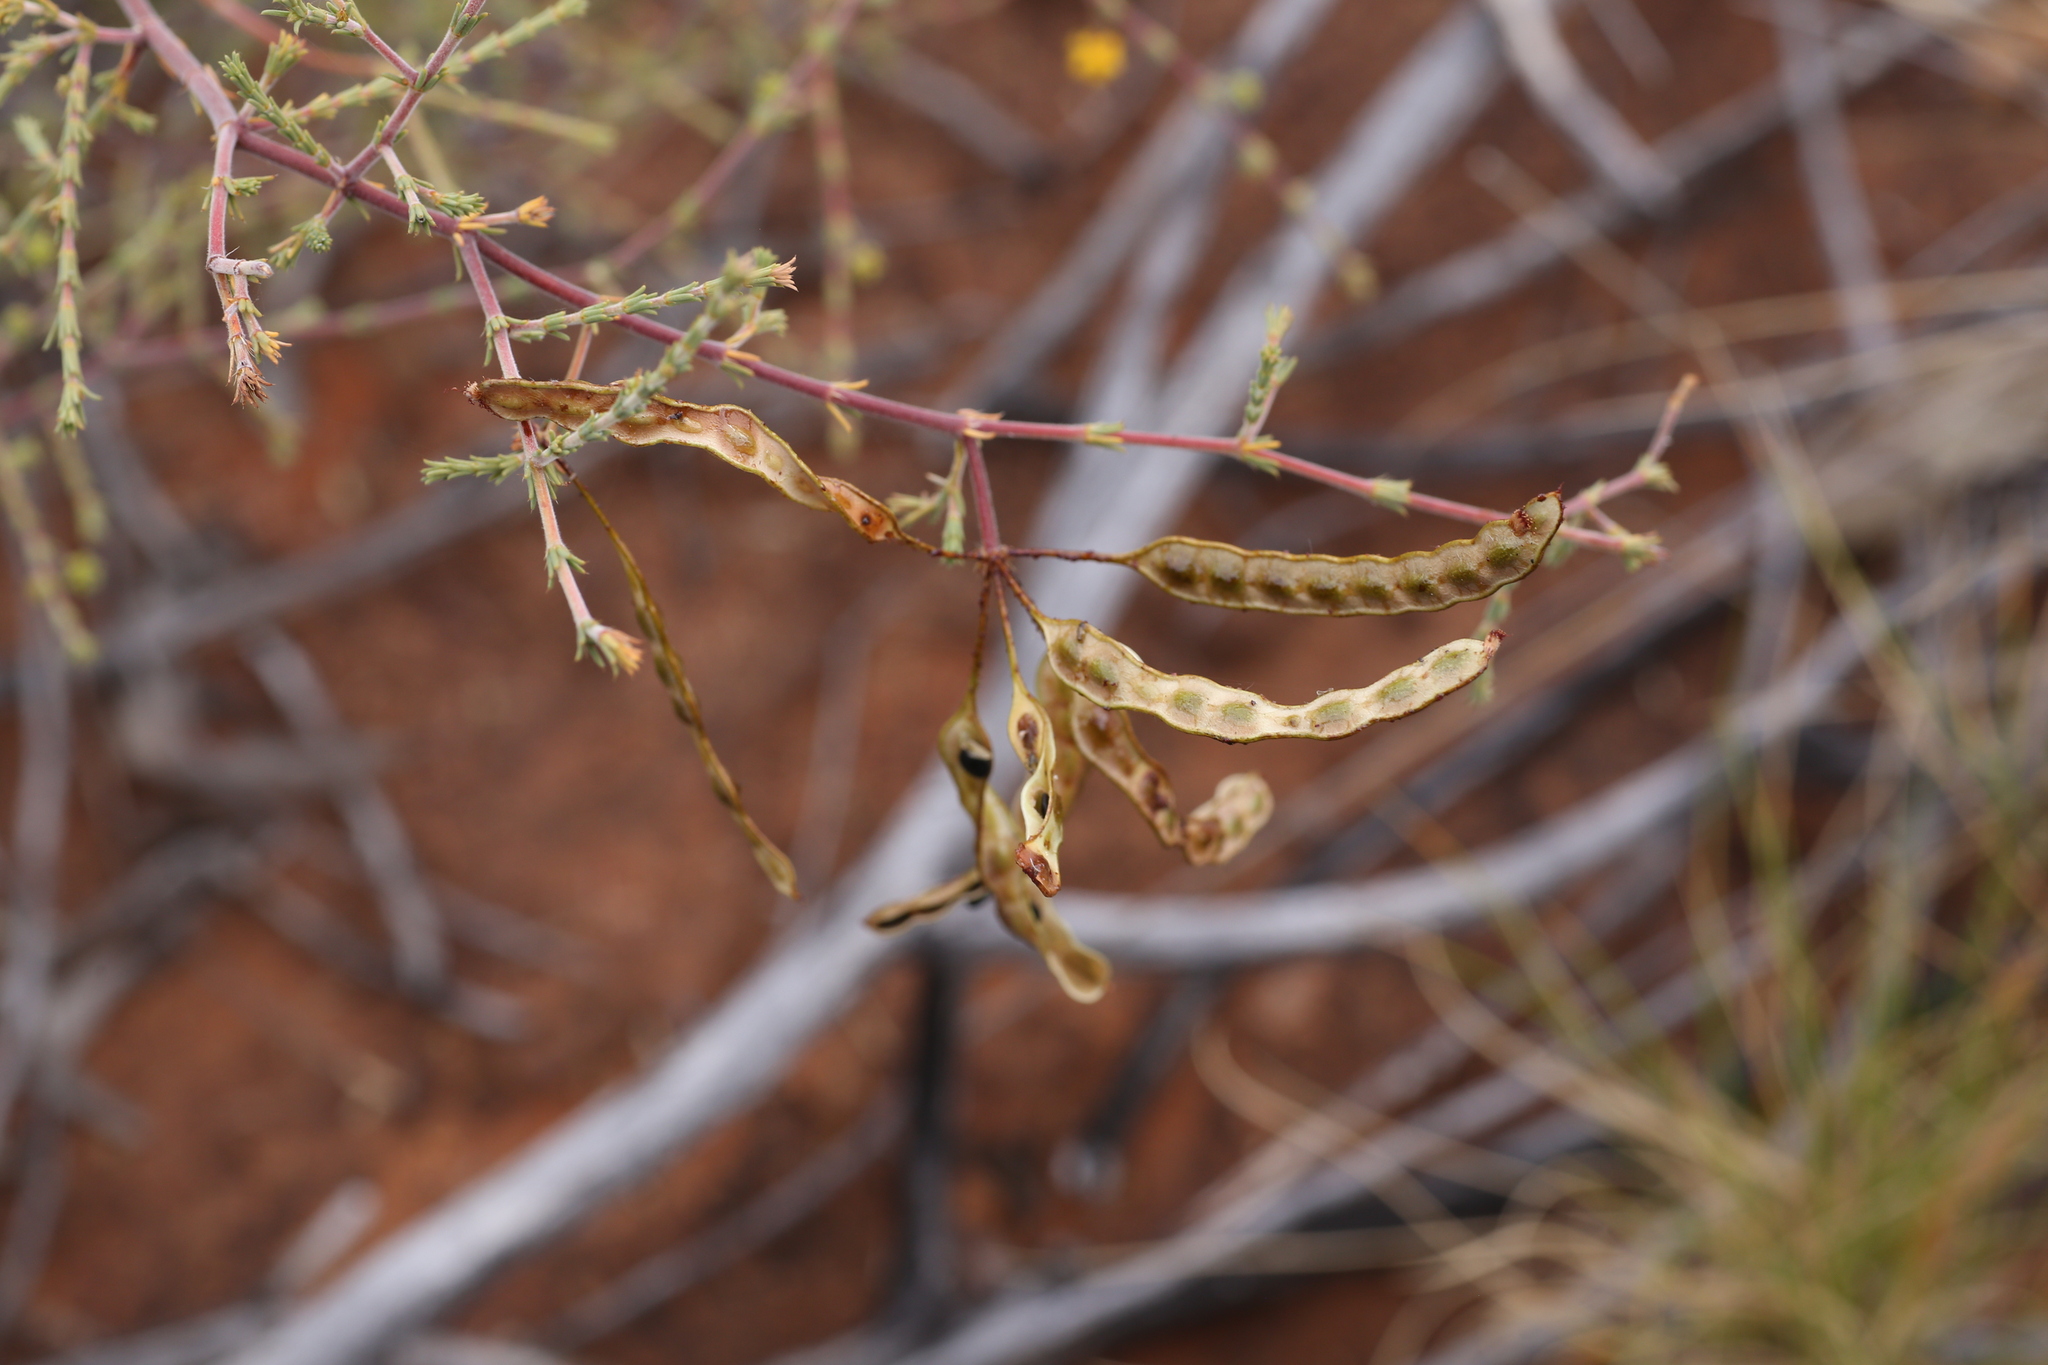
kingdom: Plantae
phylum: Tracheophyta
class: Magnoliopsida
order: Fabales
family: Fabaceae
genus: Acacia
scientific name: Acacia galioides
